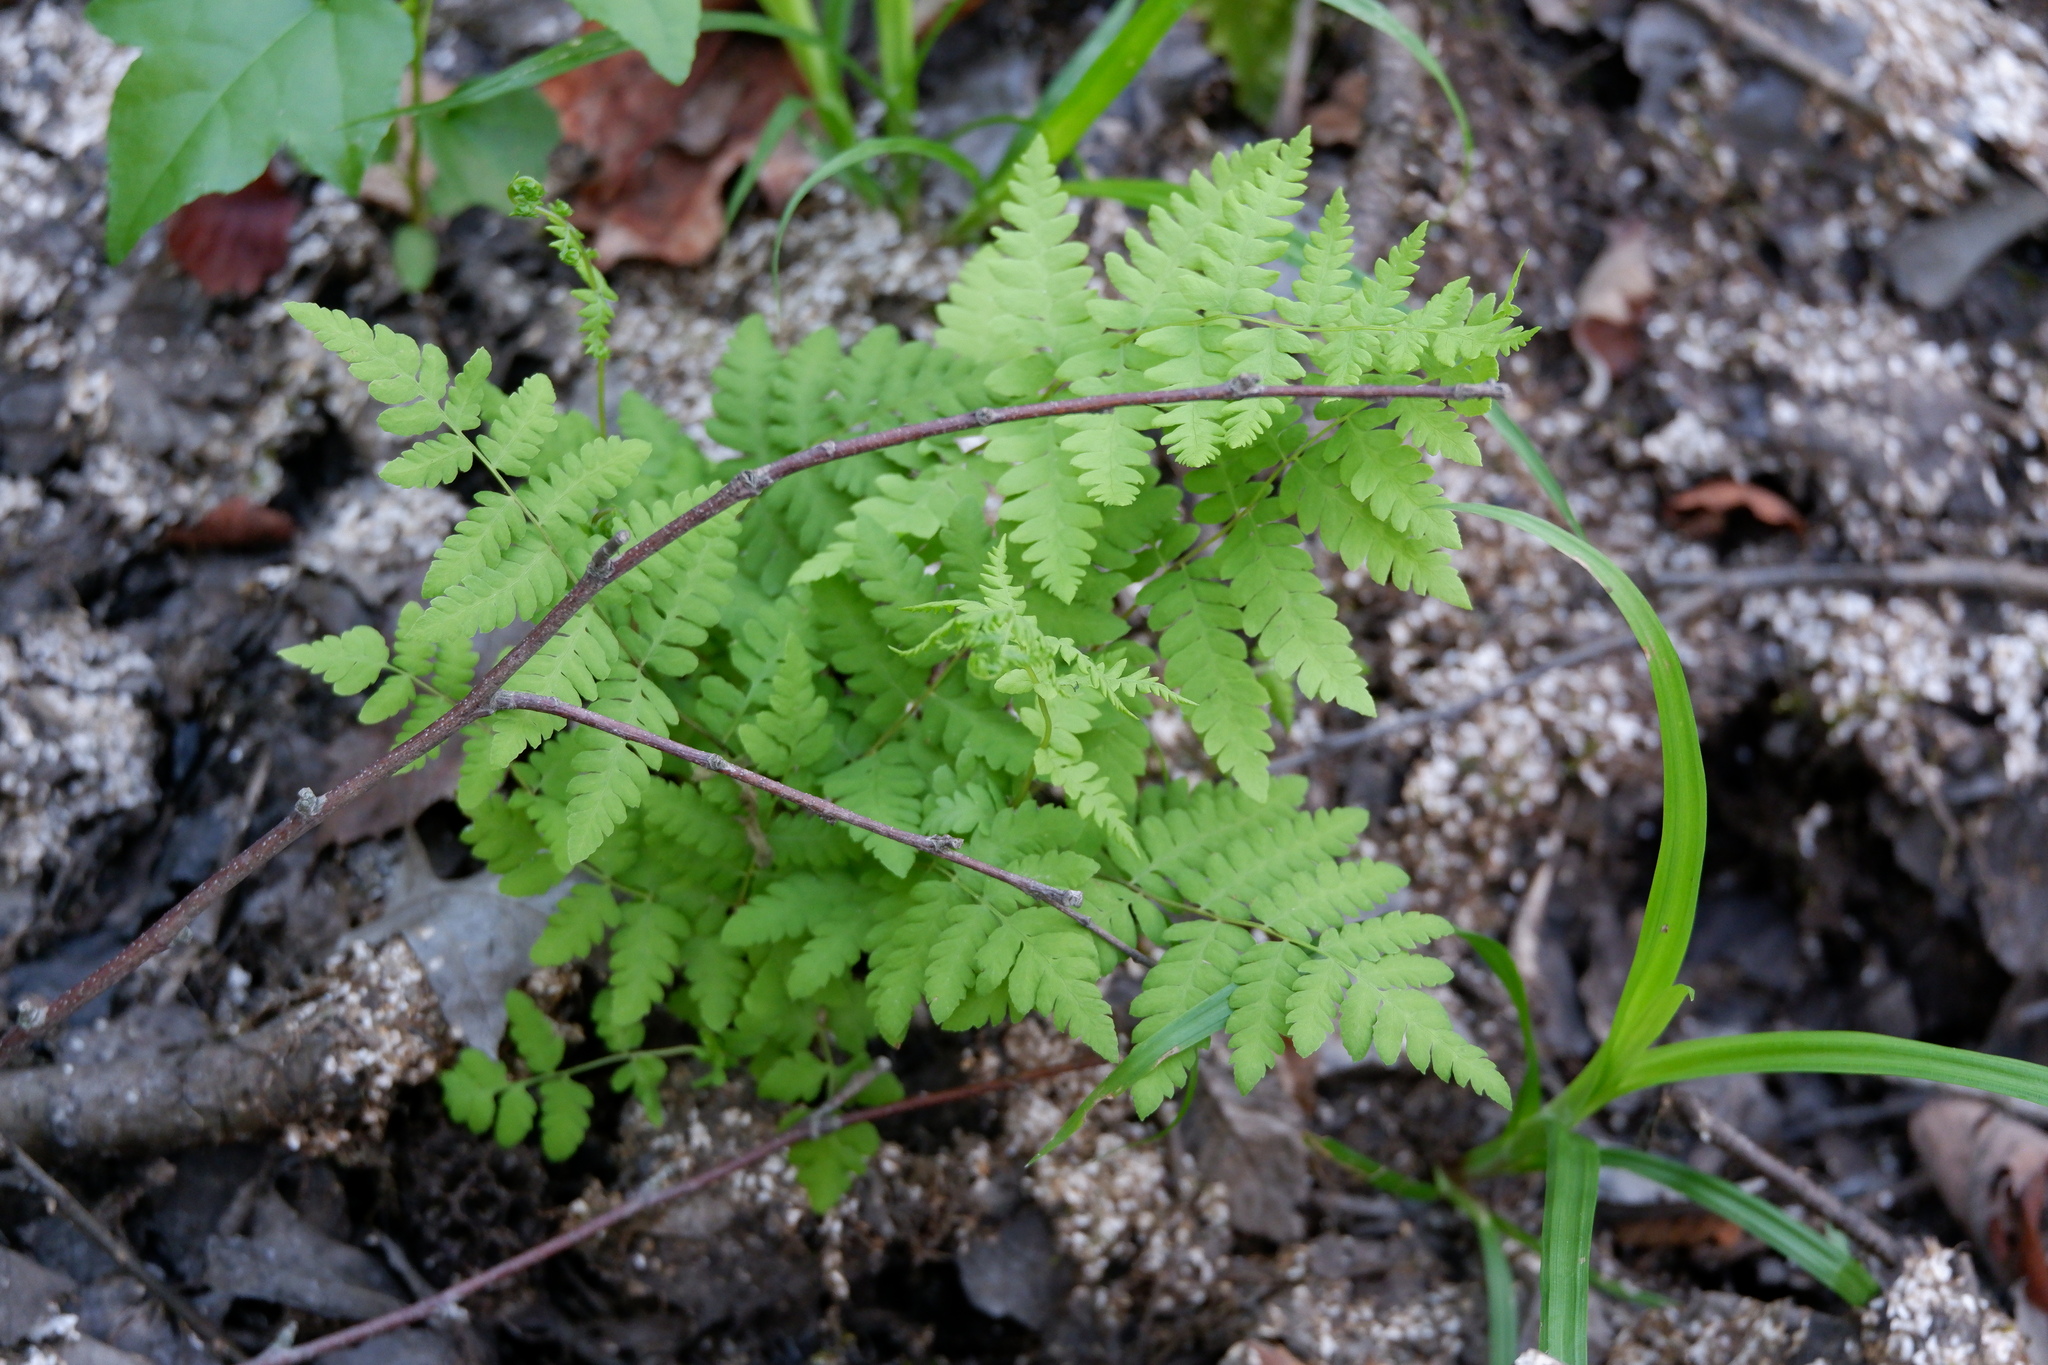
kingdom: Plantae
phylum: Tracheophyta
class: Polypodiopsida
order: Polypodiales
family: Thelypteridaceae
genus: Thelypteris
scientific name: Thelypteris palustris
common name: Marsh fern
